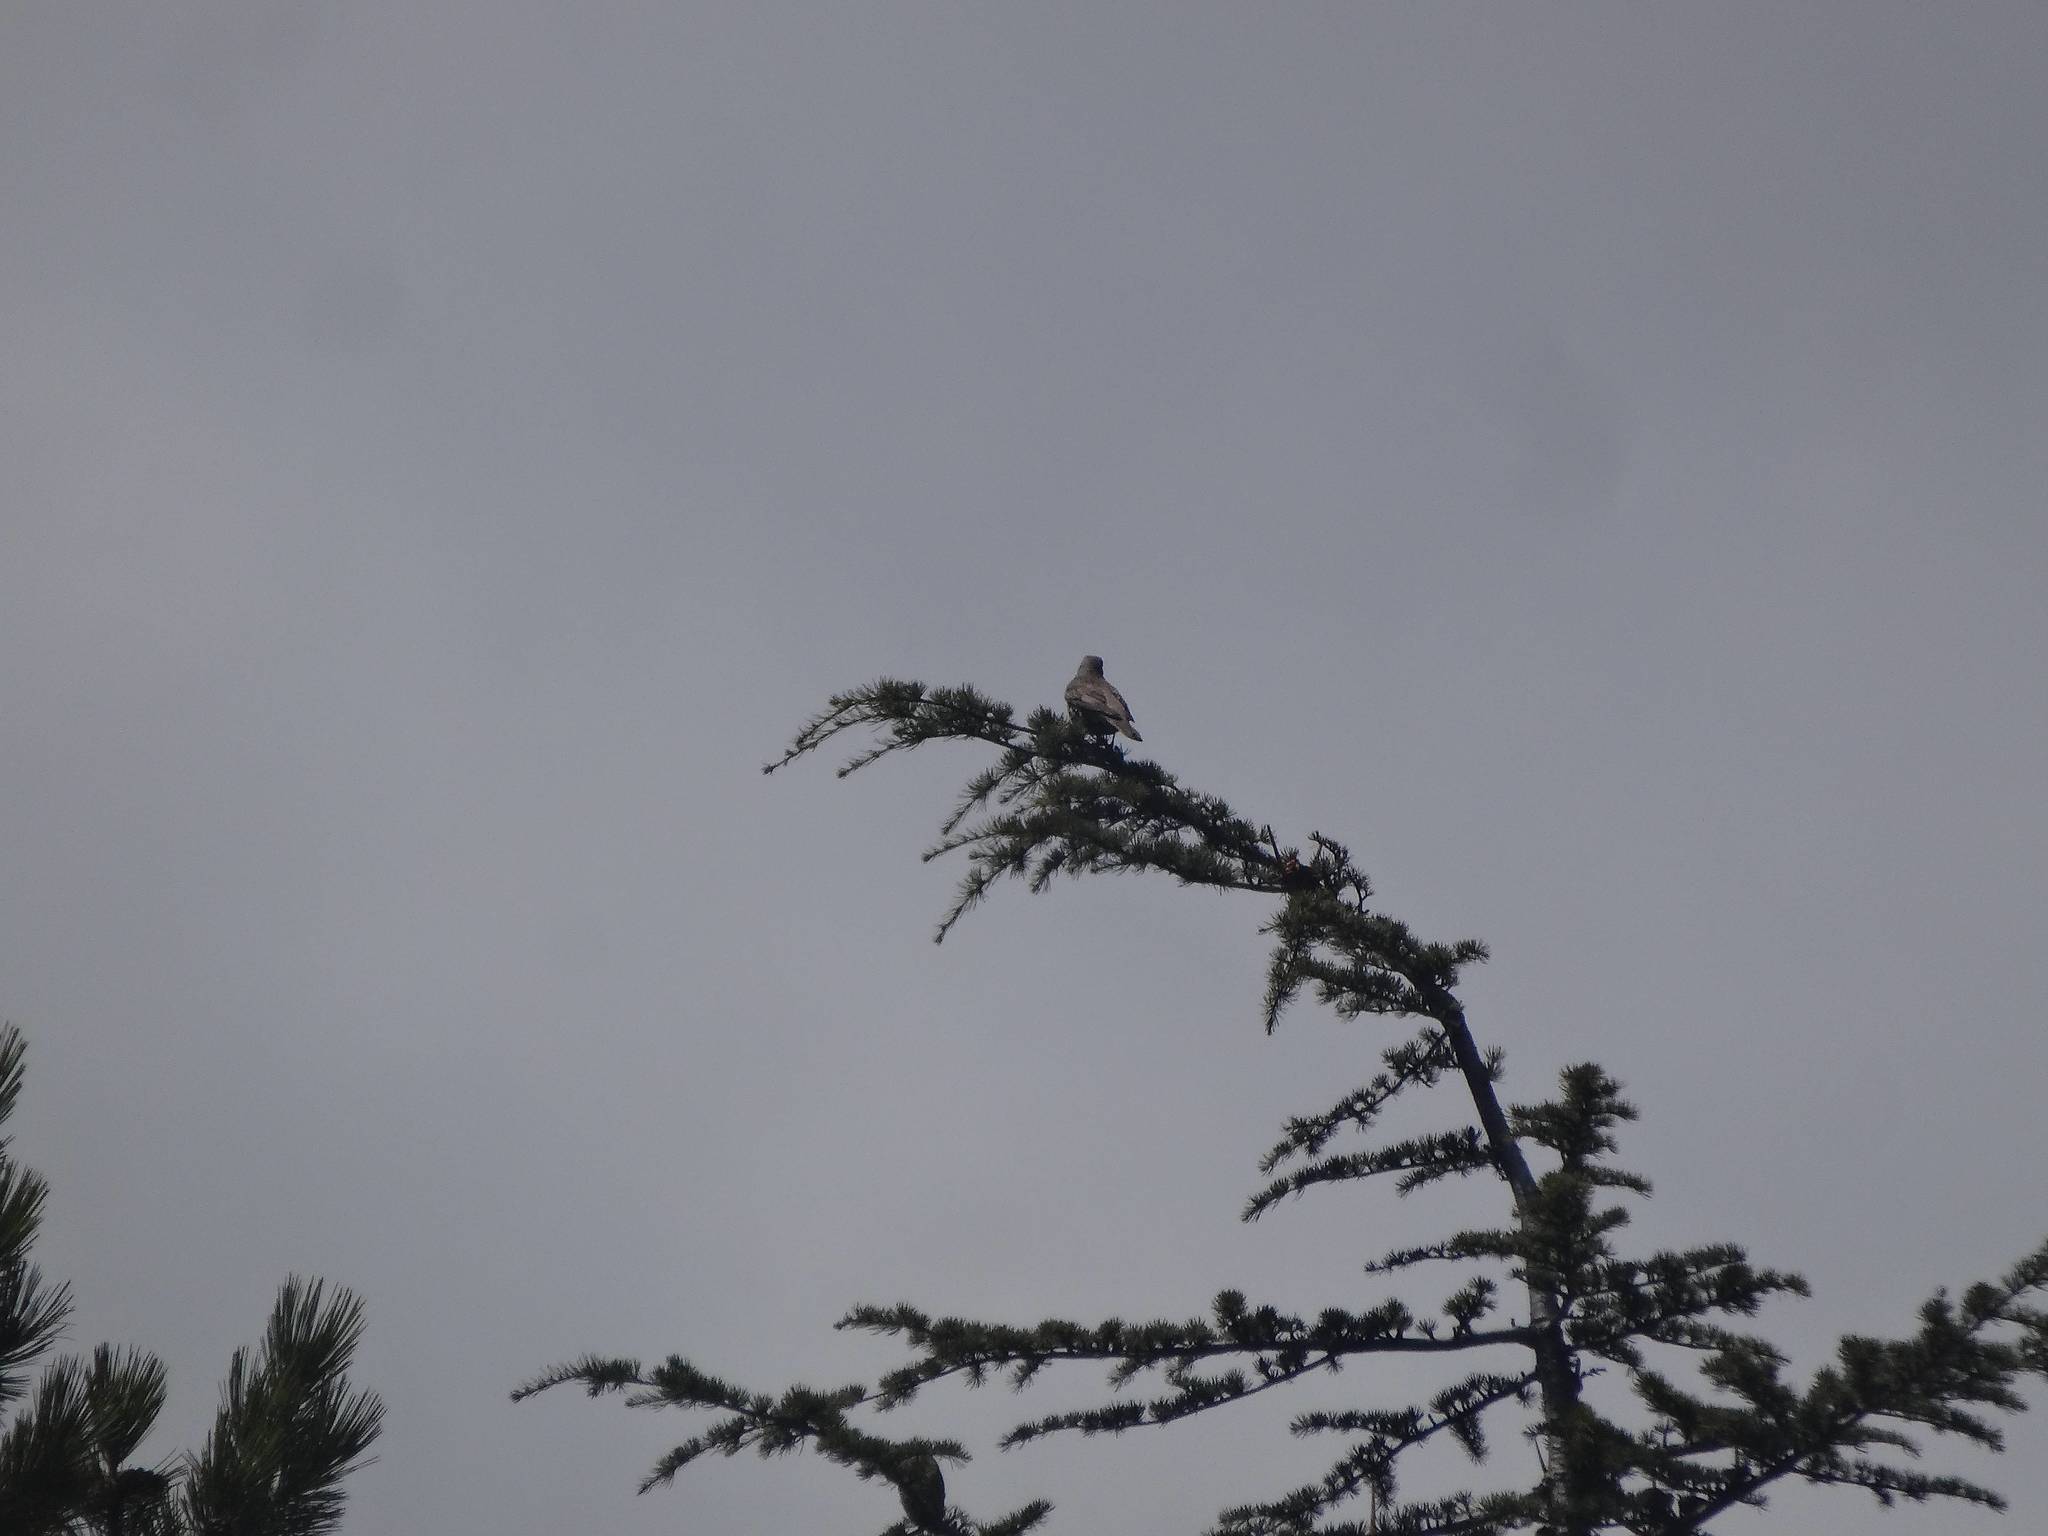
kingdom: Animalia
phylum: Chordata
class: Aves
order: Passeriformes
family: Turdidae
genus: Turdus
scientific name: Turdus viscivorus
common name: Mistle thrush
